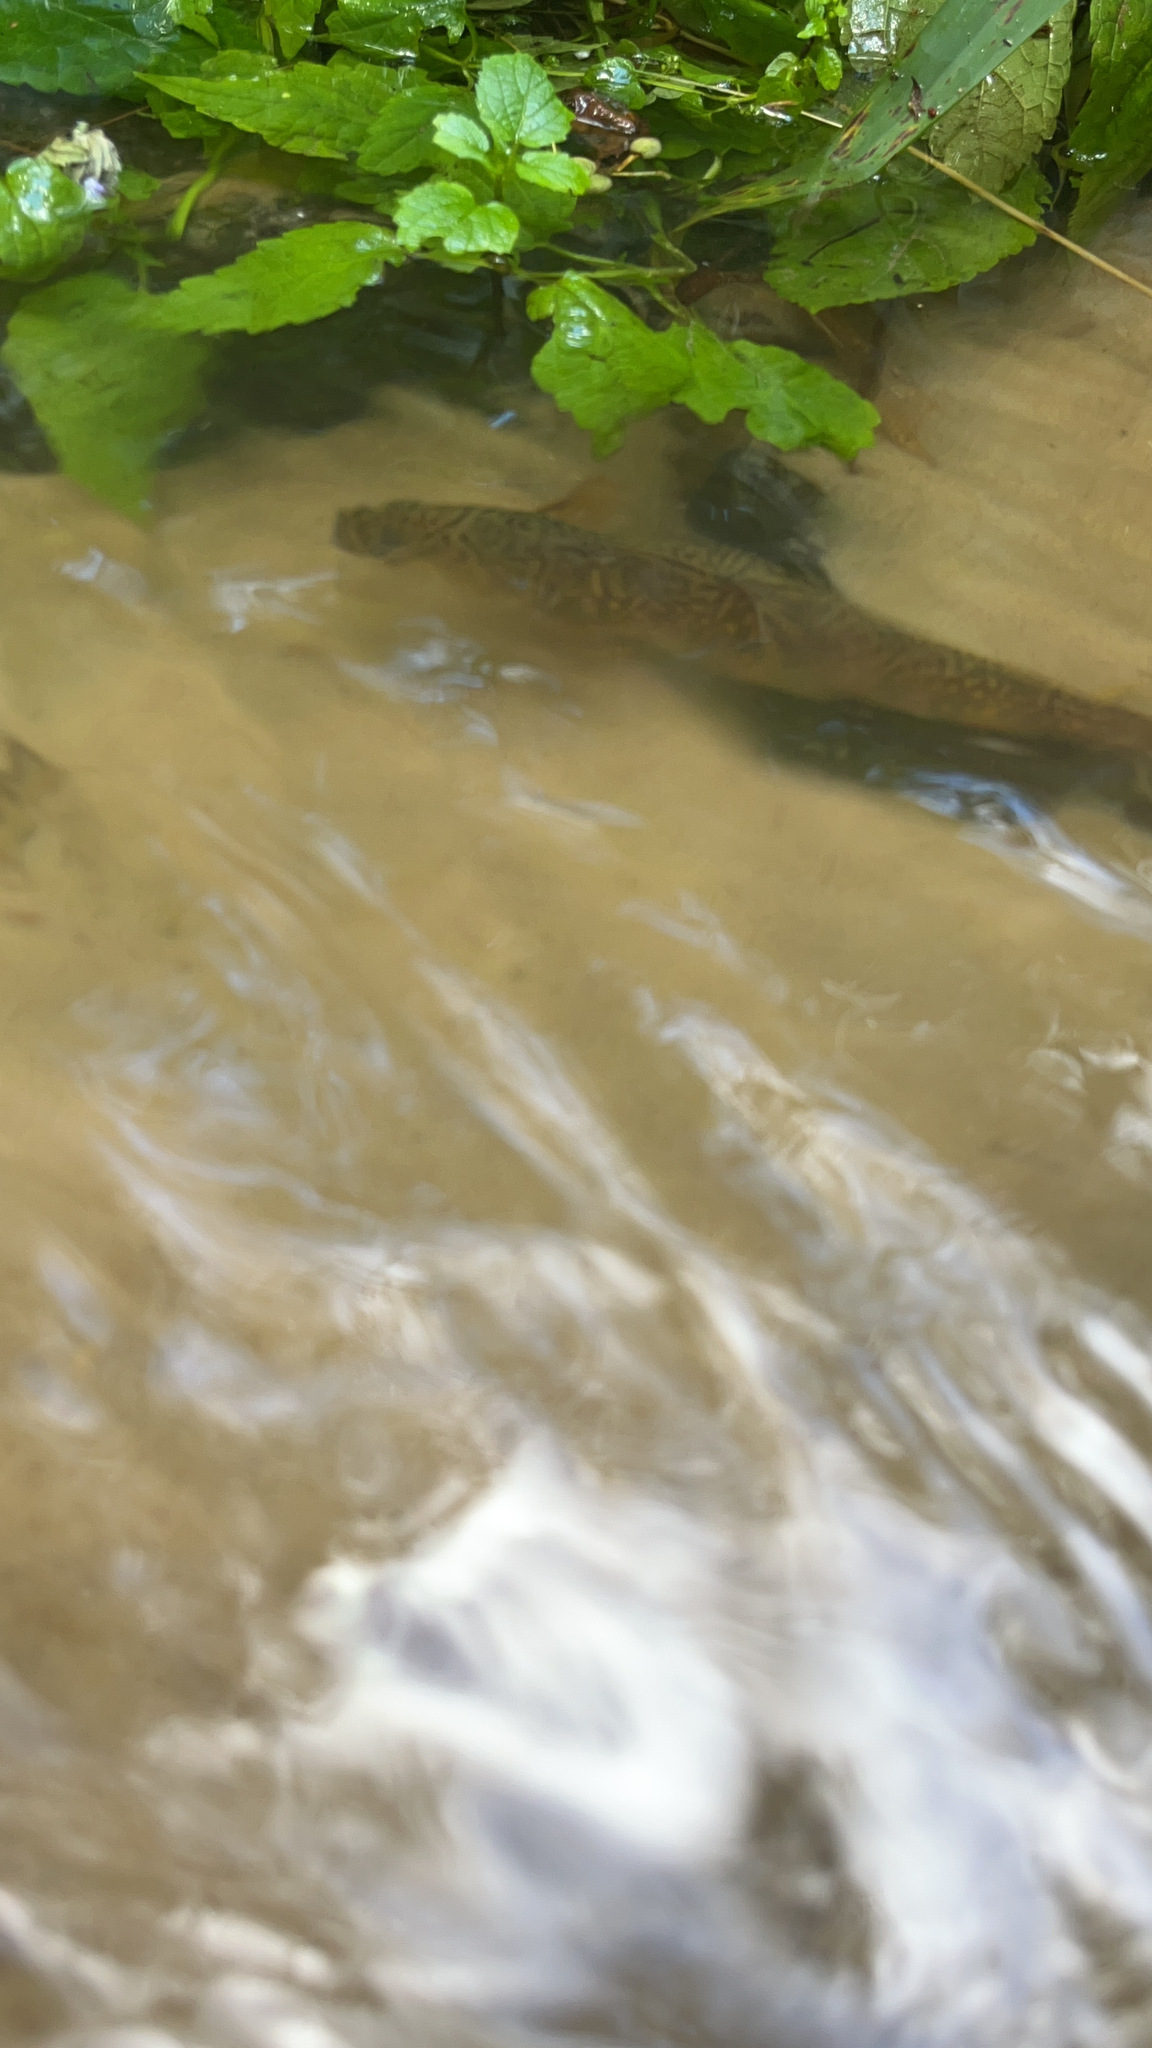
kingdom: Animalia
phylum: Chordata
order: Salmoniformes
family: Salmonidae
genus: Salvelinus
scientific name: Salvelinus fontinalis
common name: Brook trout
